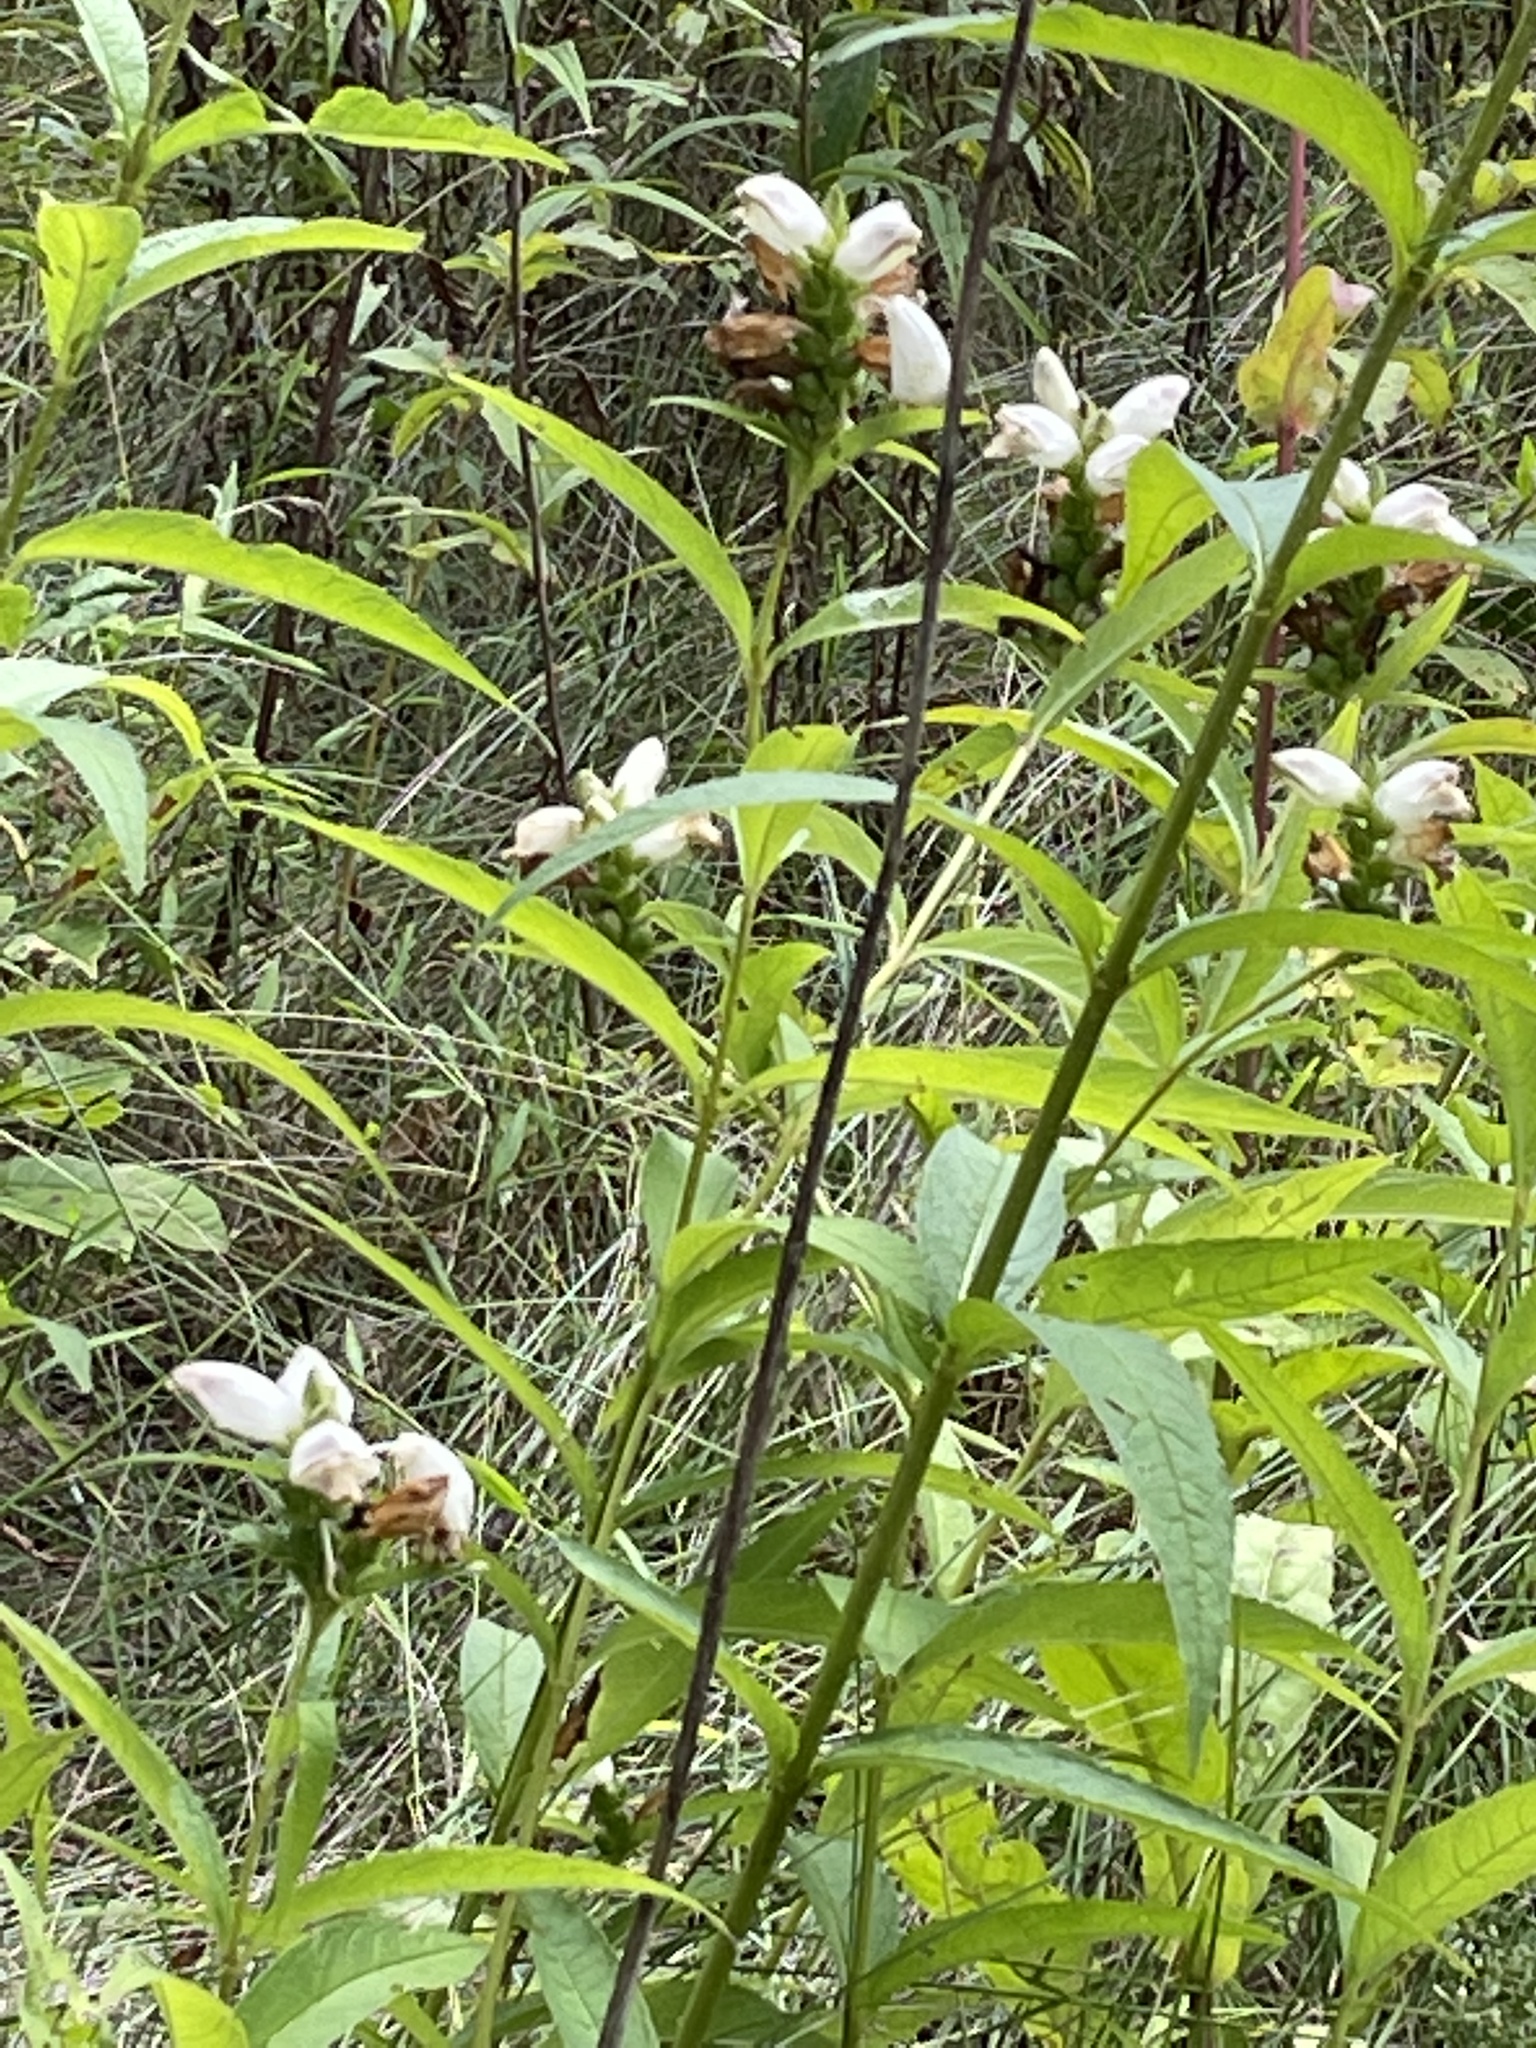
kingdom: Plantae
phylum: Tracheophyta
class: Magnoliopsida
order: Lamiales
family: Plantaginaceae
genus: Chelone
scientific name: Chelone glabra
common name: Snakehead
